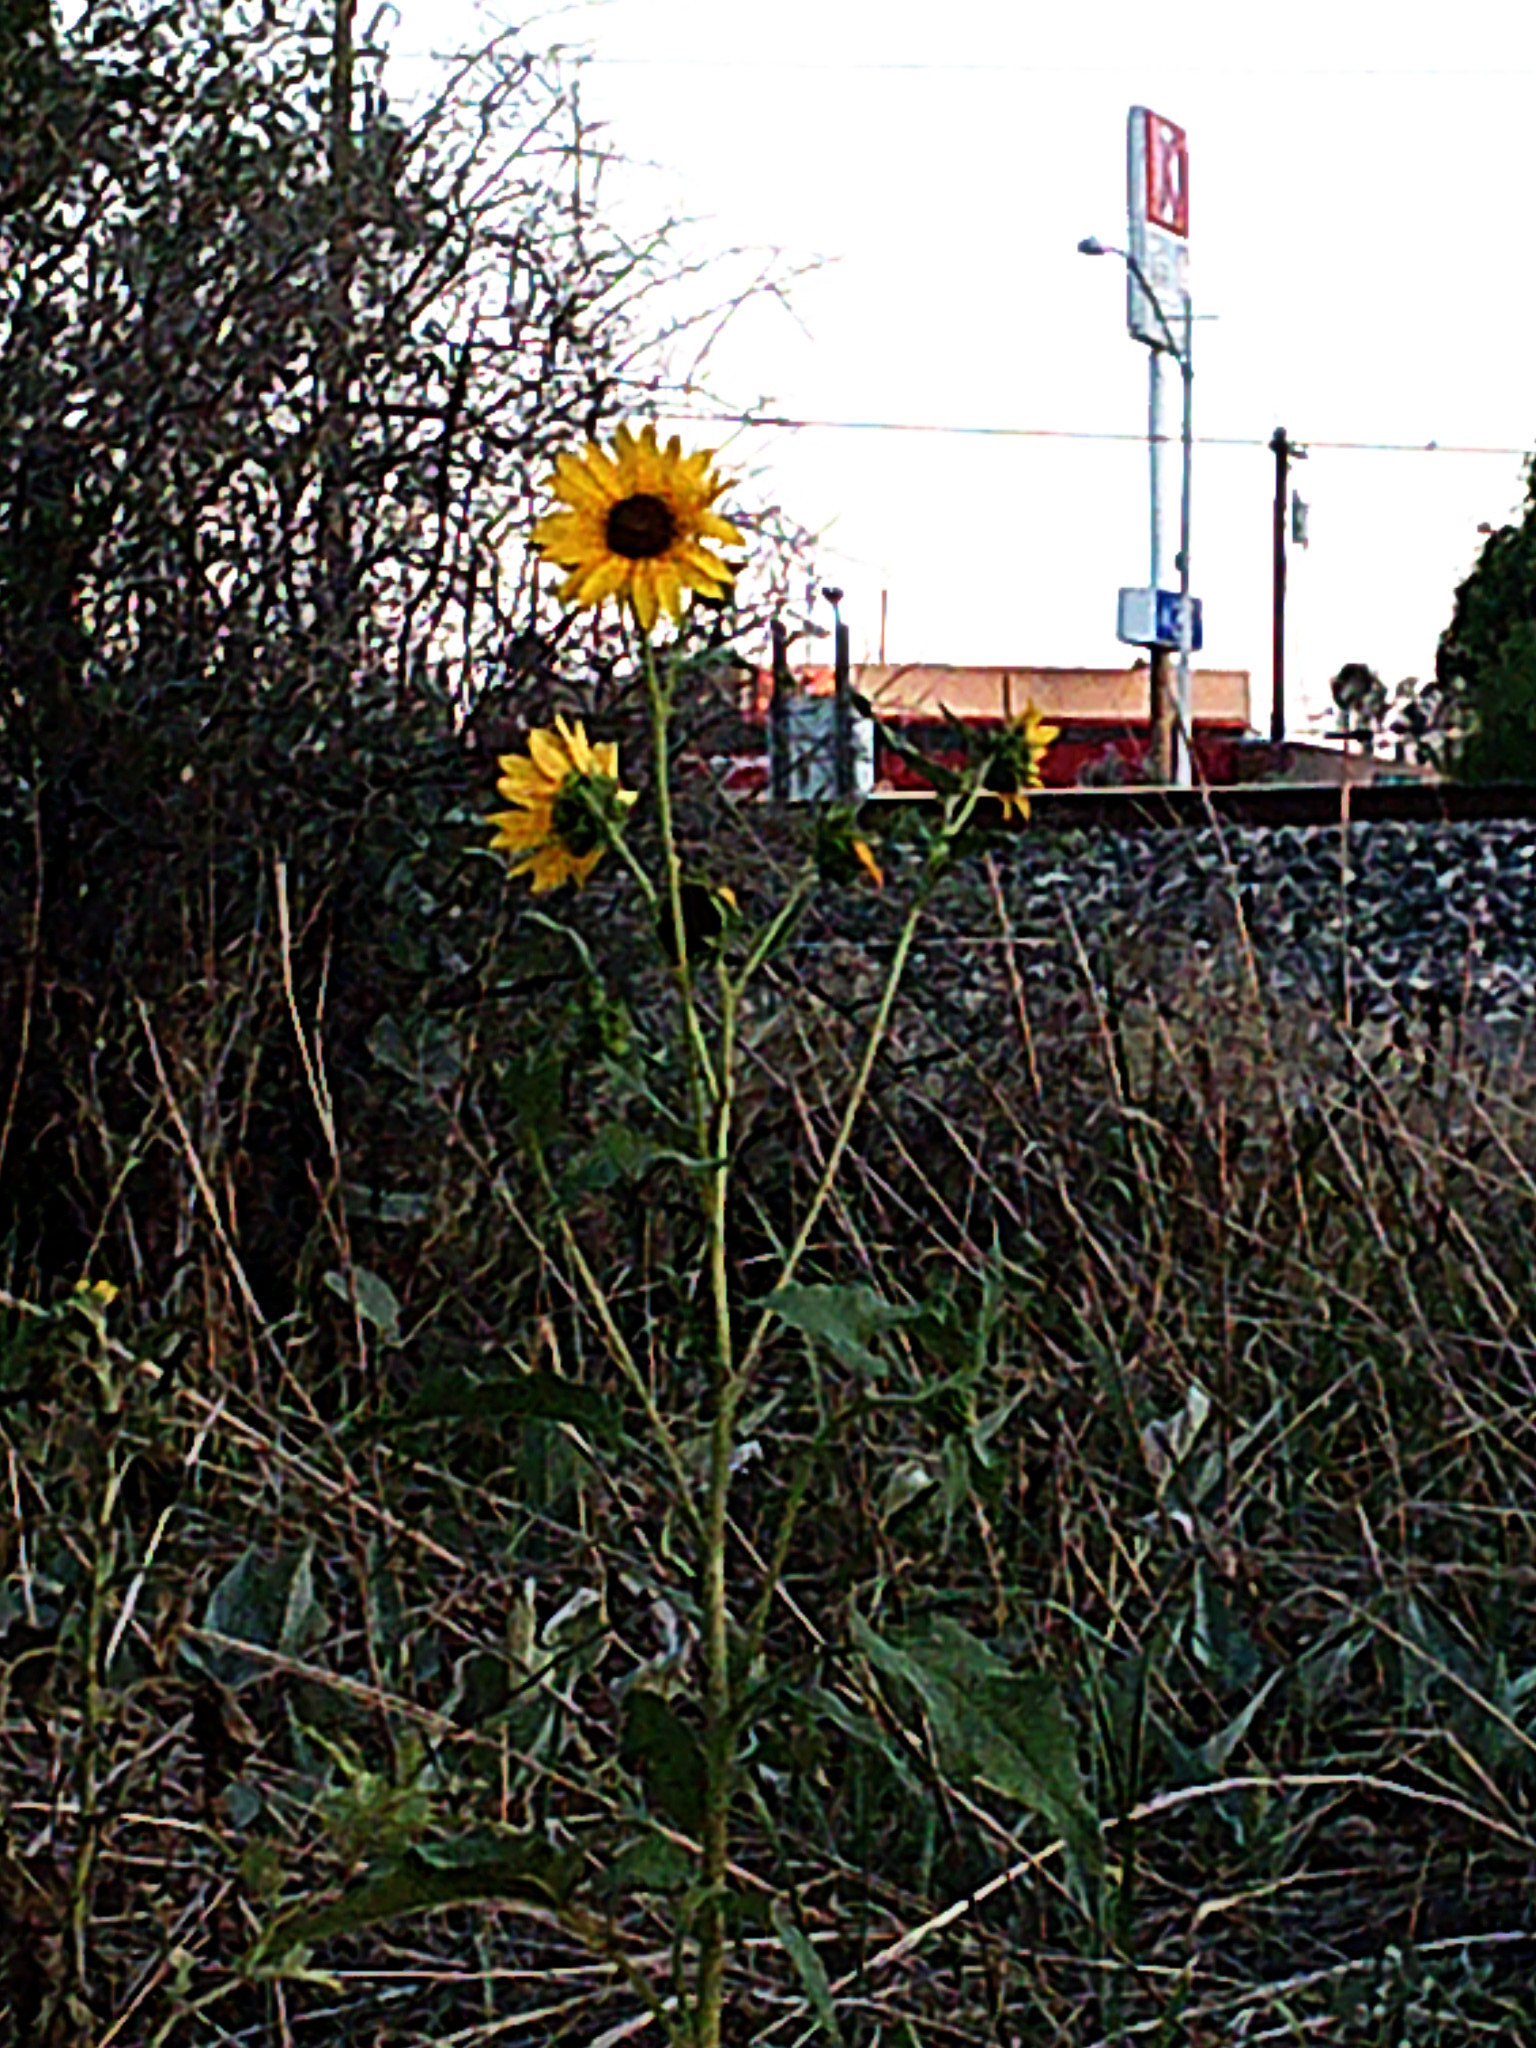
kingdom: Plantae
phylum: Tracheophyta
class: Magnoliopsida
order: Asterales
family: Asteraceae
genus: Helianthus
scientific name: Helianthus annuus
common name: Sunflower
